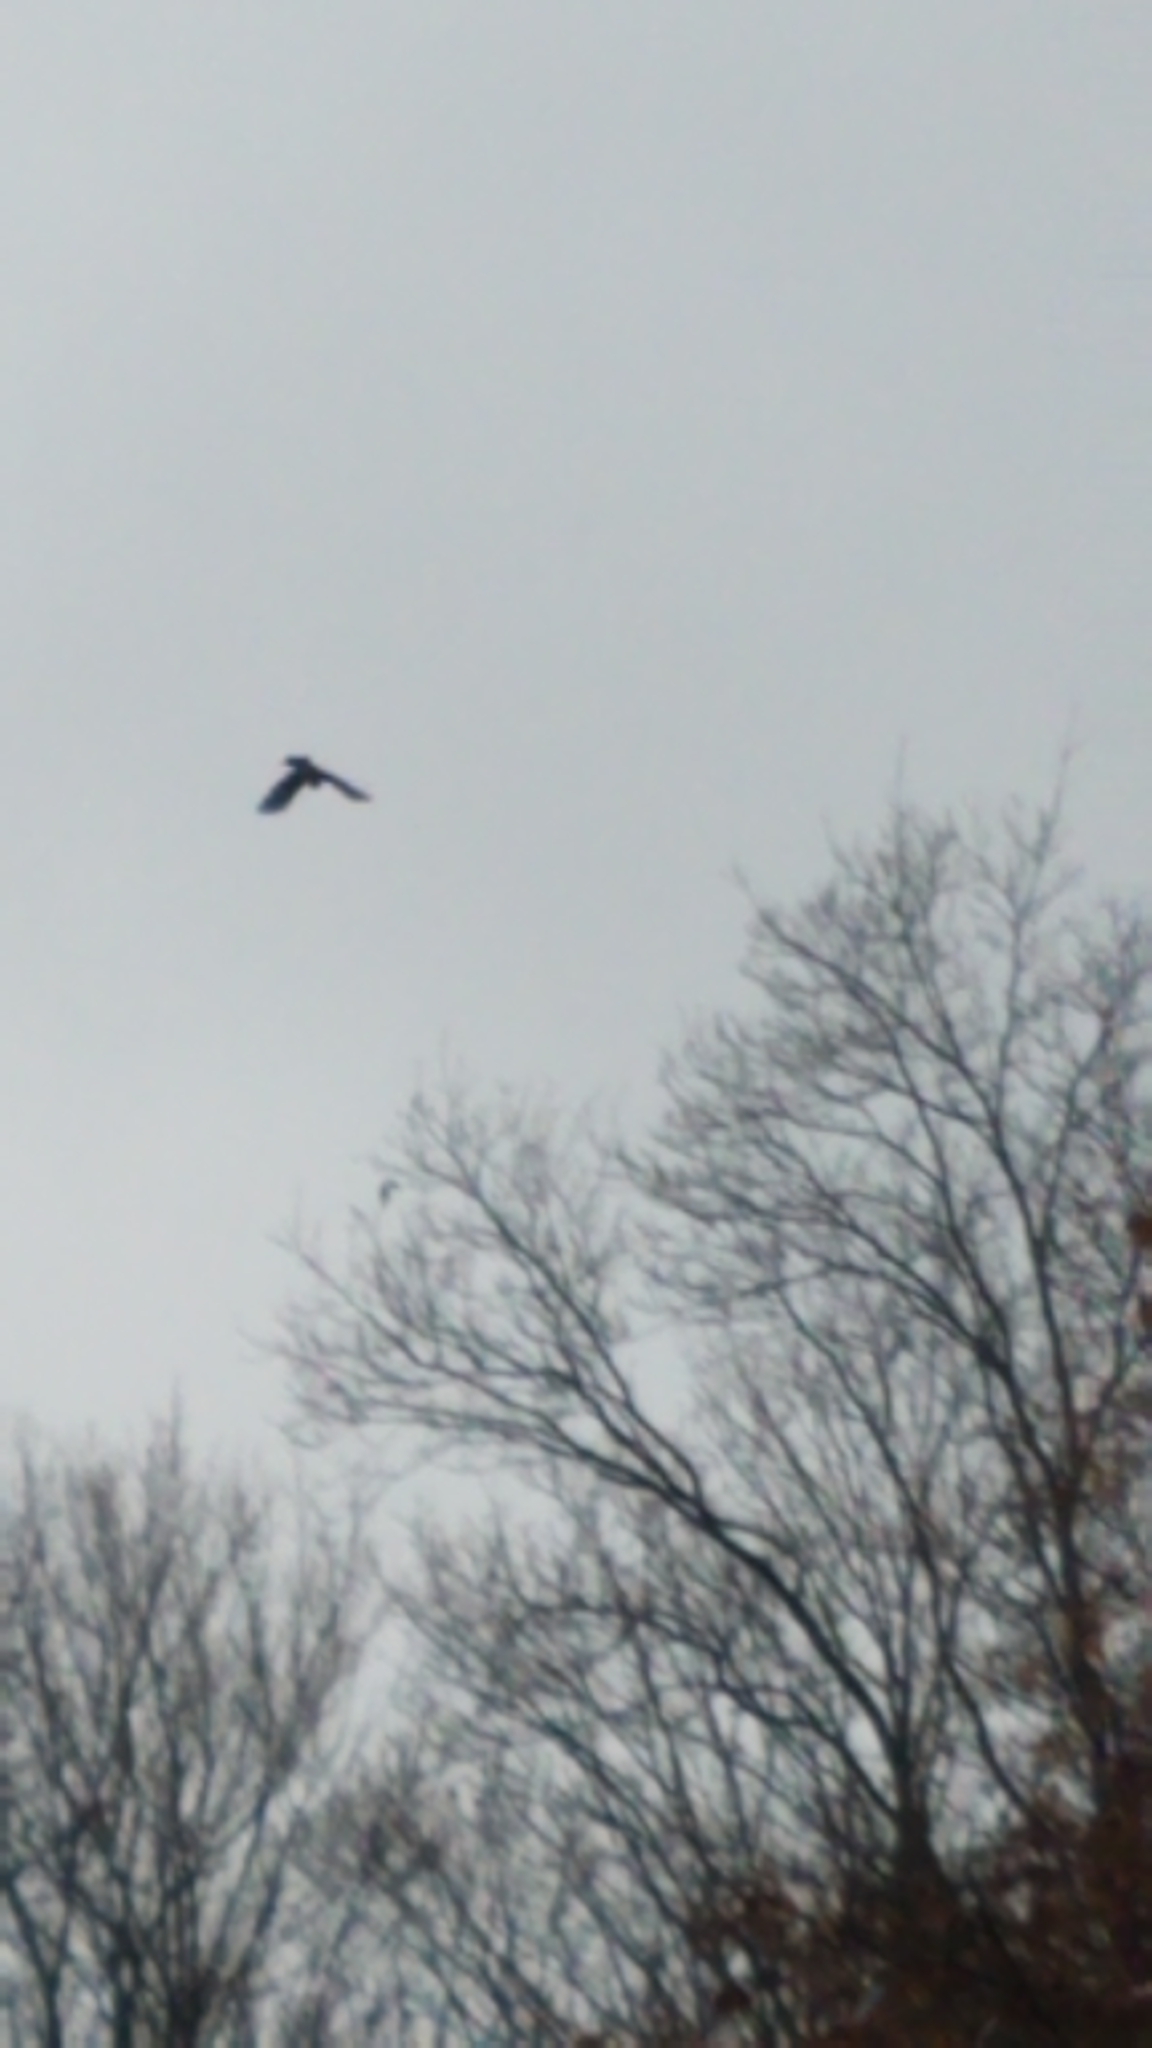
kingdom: Animalia
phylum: Chordata
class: Aves
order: Passeriformes
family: Corvidae
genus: Cyanocitta
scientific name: Cyanocitta cristata
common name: Blue jay
